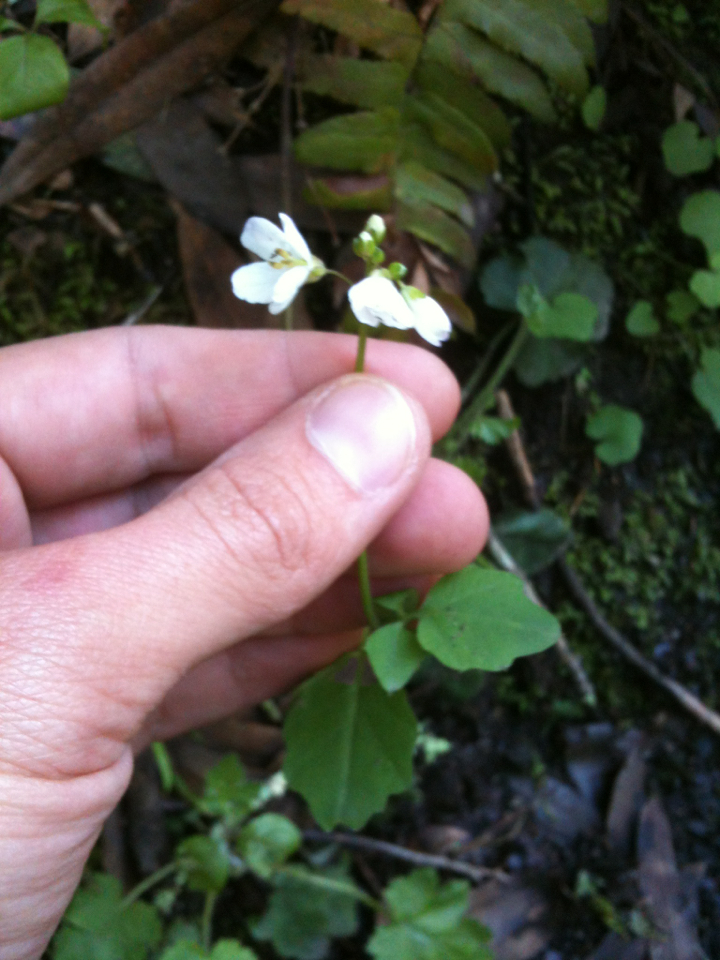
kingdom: Plantae
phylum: Tracheophyta
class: Magnoliopsida
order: Brassicales
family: Brassicaceae
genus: Cardamine
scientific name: Cardamine californica
